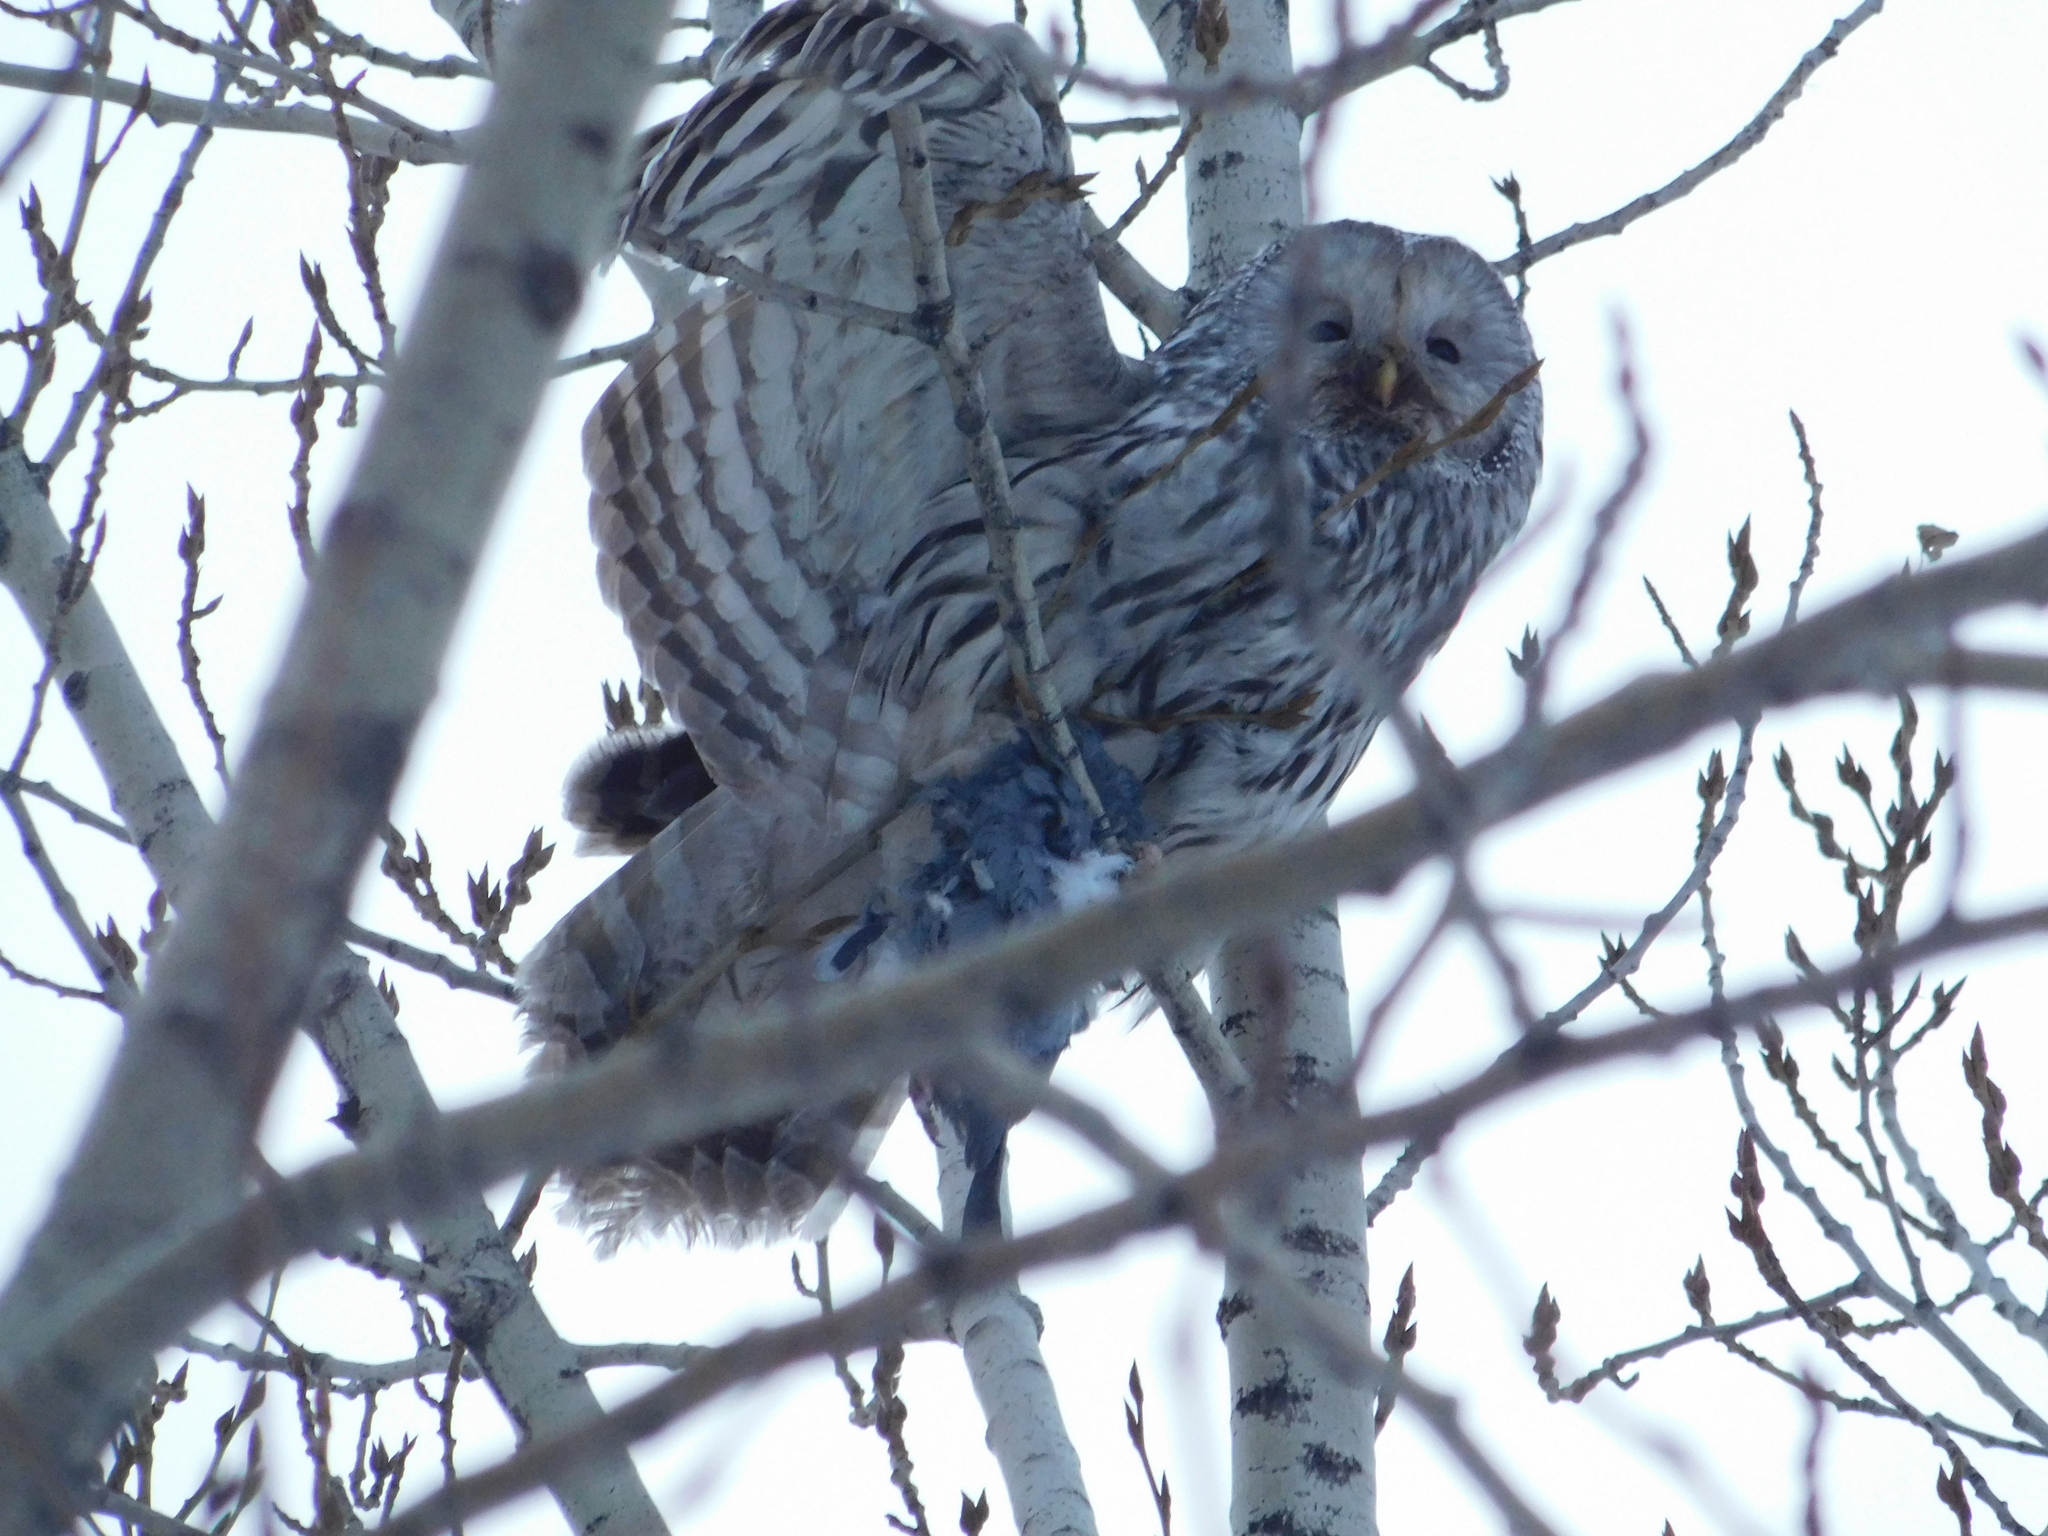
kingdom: Animalia
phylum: Chordata
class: Aves
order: Strigiformes
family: Strigidae
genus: Strix
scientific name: Strix uralensis
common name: Ural owl
